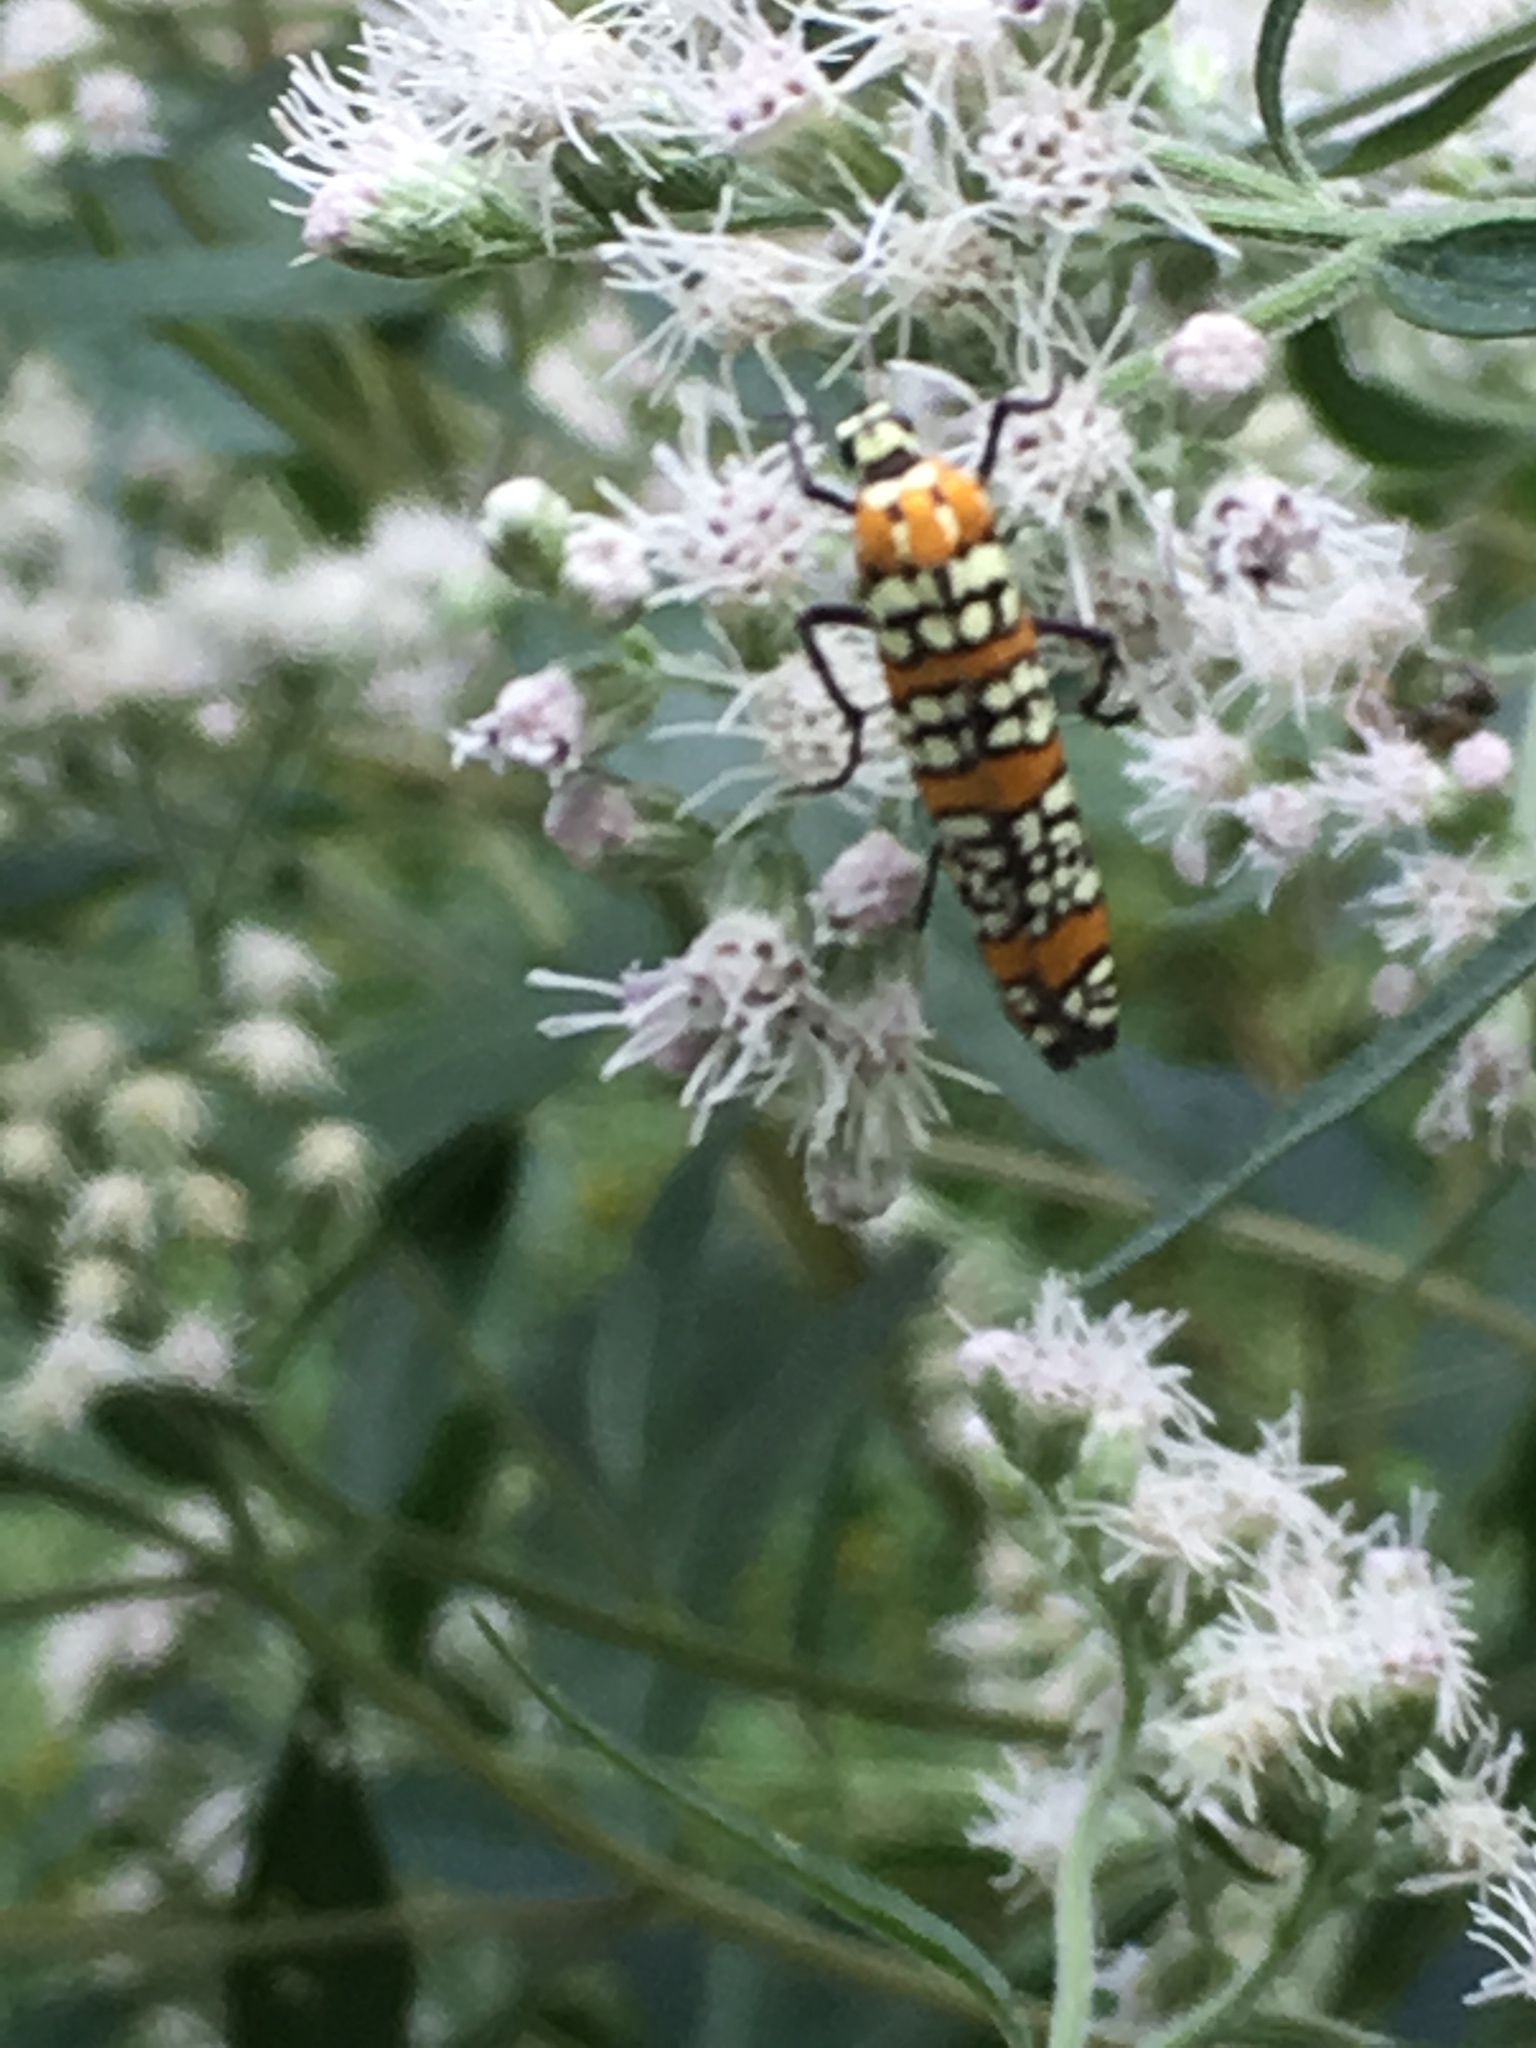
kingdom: Animalia
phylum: Arthropoda
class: Insecta
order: Lepidoptera
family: Attevidae
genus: Atteva
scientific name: Atteva punctella
